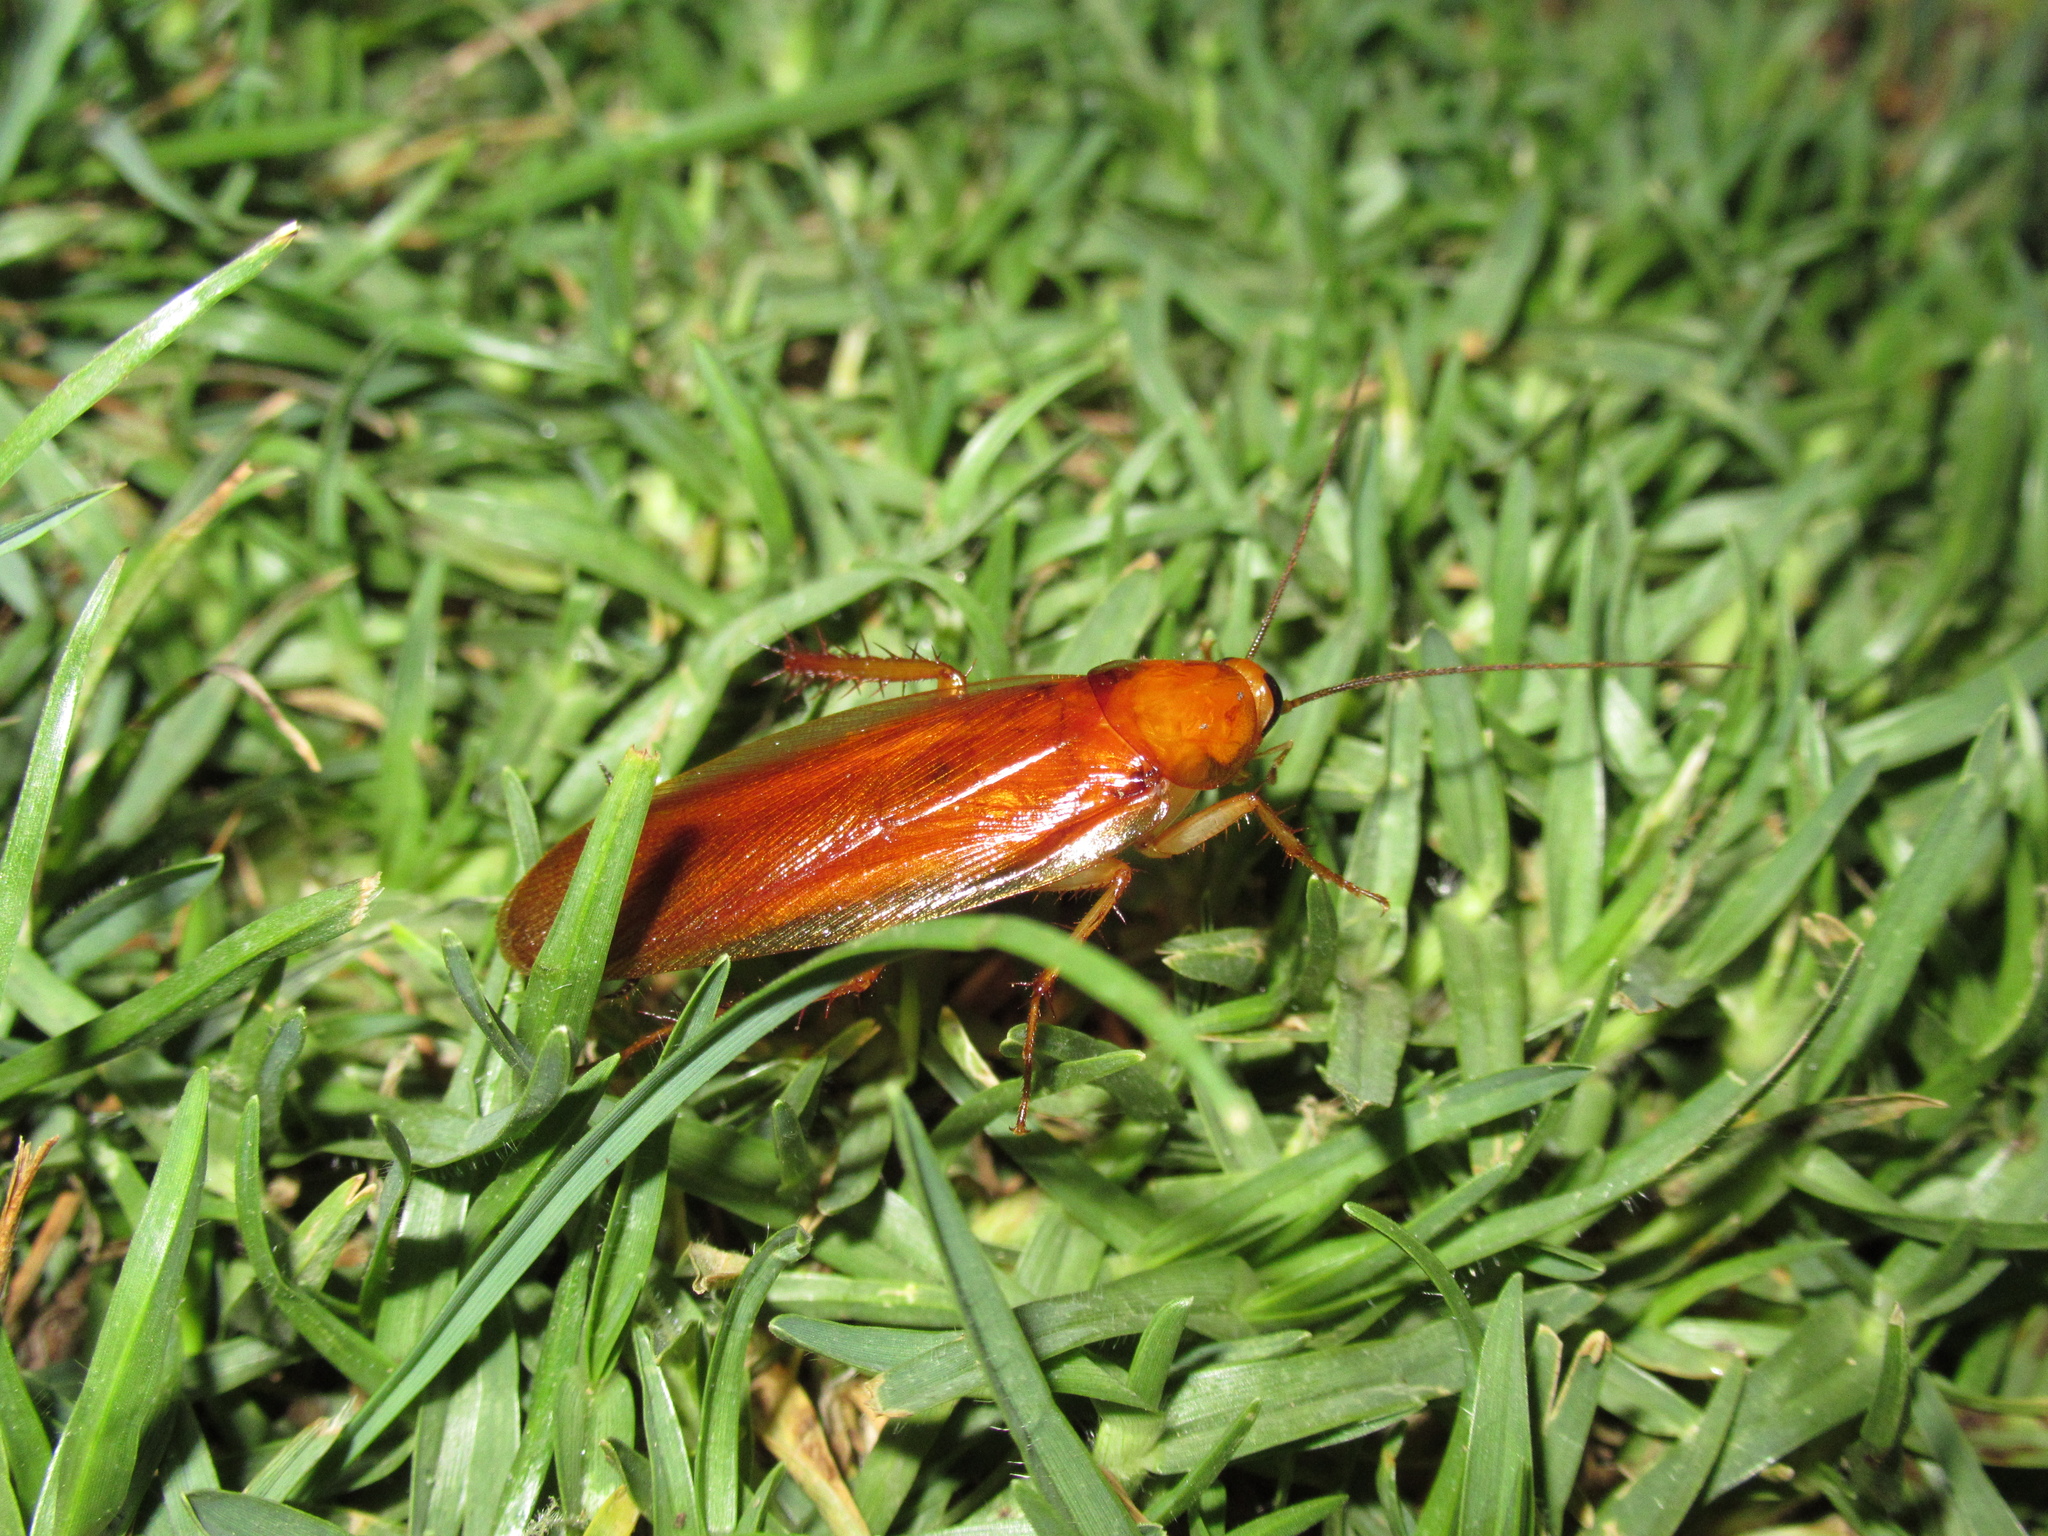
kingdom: Animalia
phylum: Arthropoda
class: Insecta
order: Blattodea
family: Ectobiidae
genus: Neotemnopteryx
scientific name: Neotemnopteryx fulva
